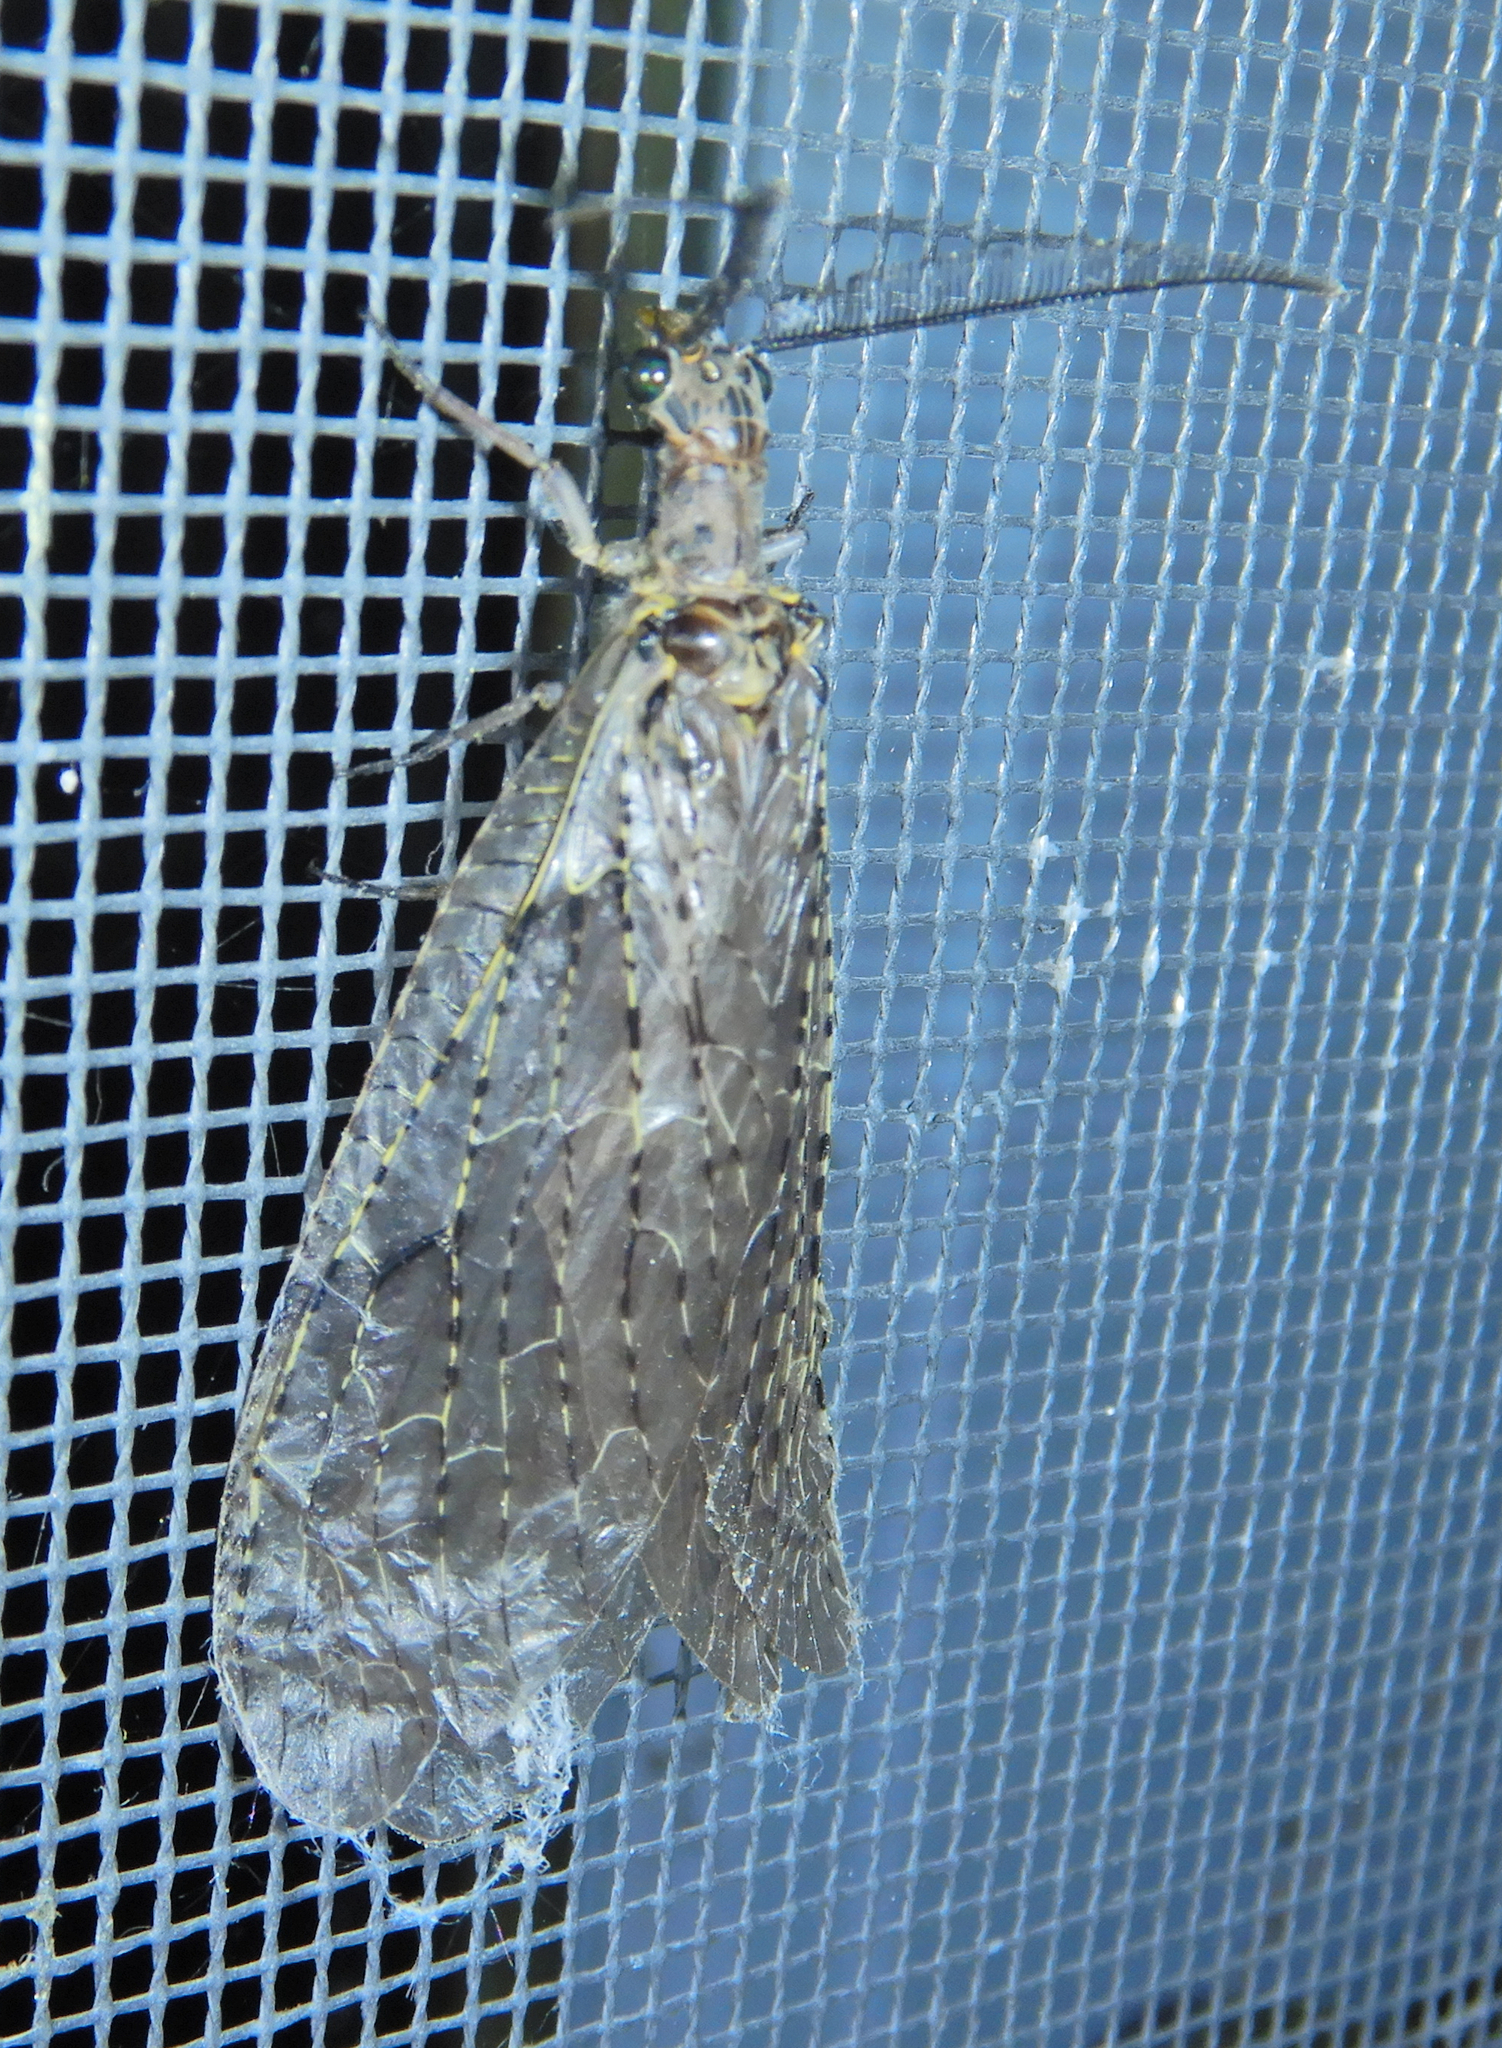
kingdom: Animalia
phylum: Arthropoda
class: Insecta
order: Megaloptera
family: Corydalidae
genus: Chauliodes
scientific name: Chauliodes rastricornis
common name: Spring fishfly
